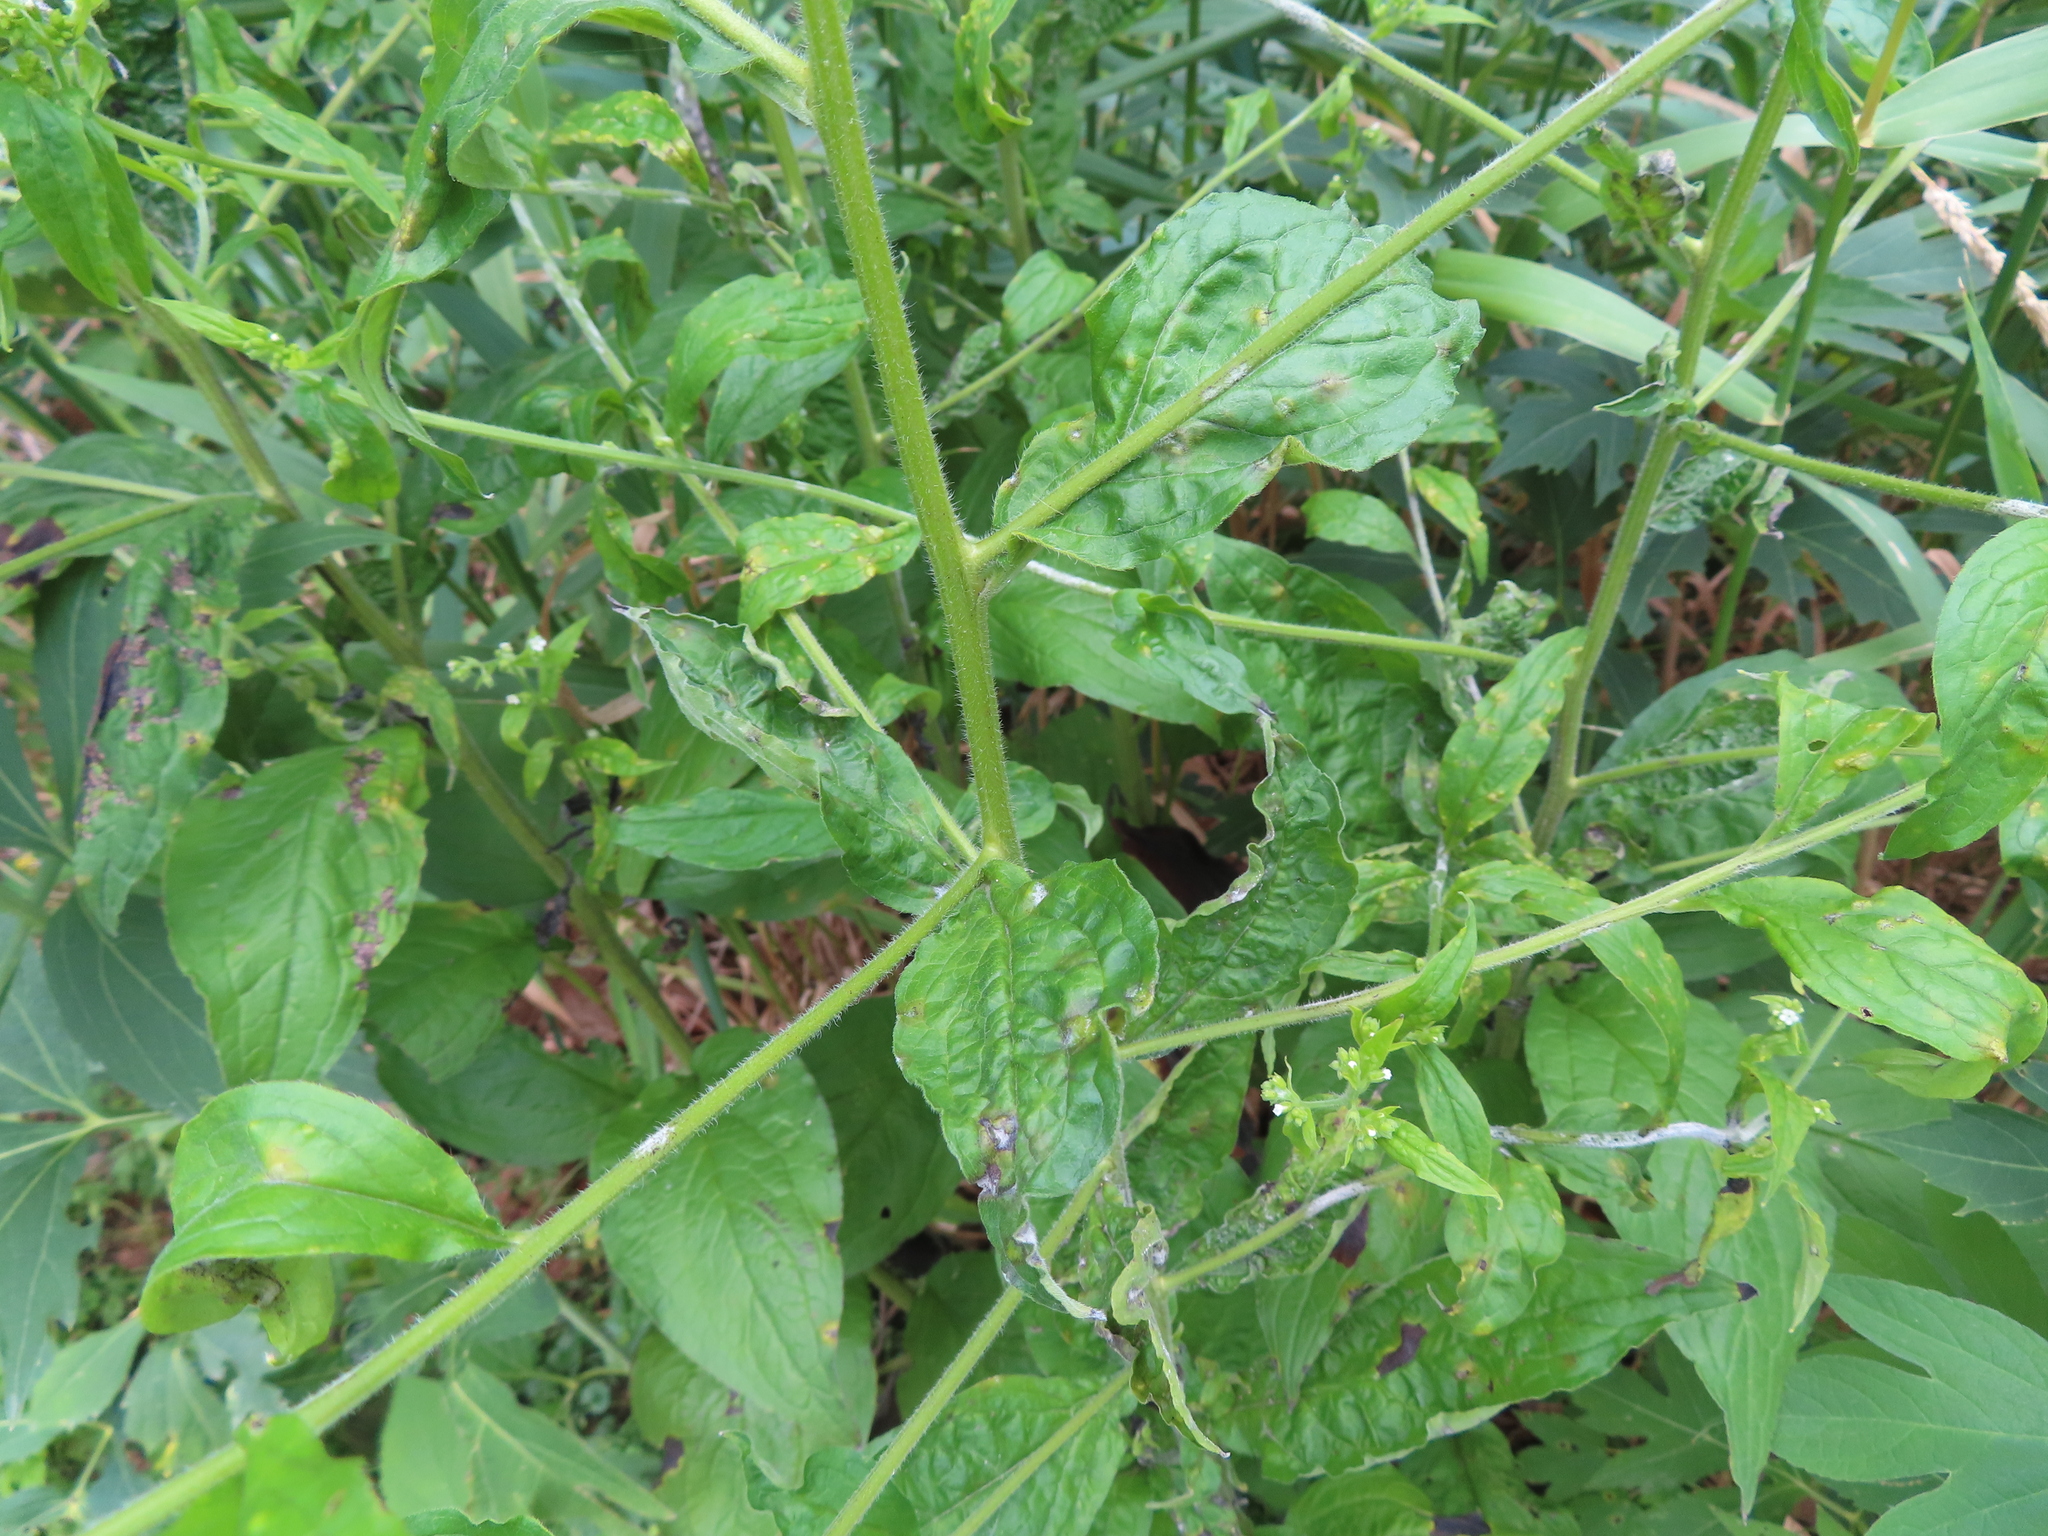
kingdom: Plantae
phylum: Tracheophyta
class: Magnoliopsida
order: Boraginales
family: Boraginaceae
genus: Hackelia
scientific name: Hackelia virginiana
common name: Beggar's-lice
